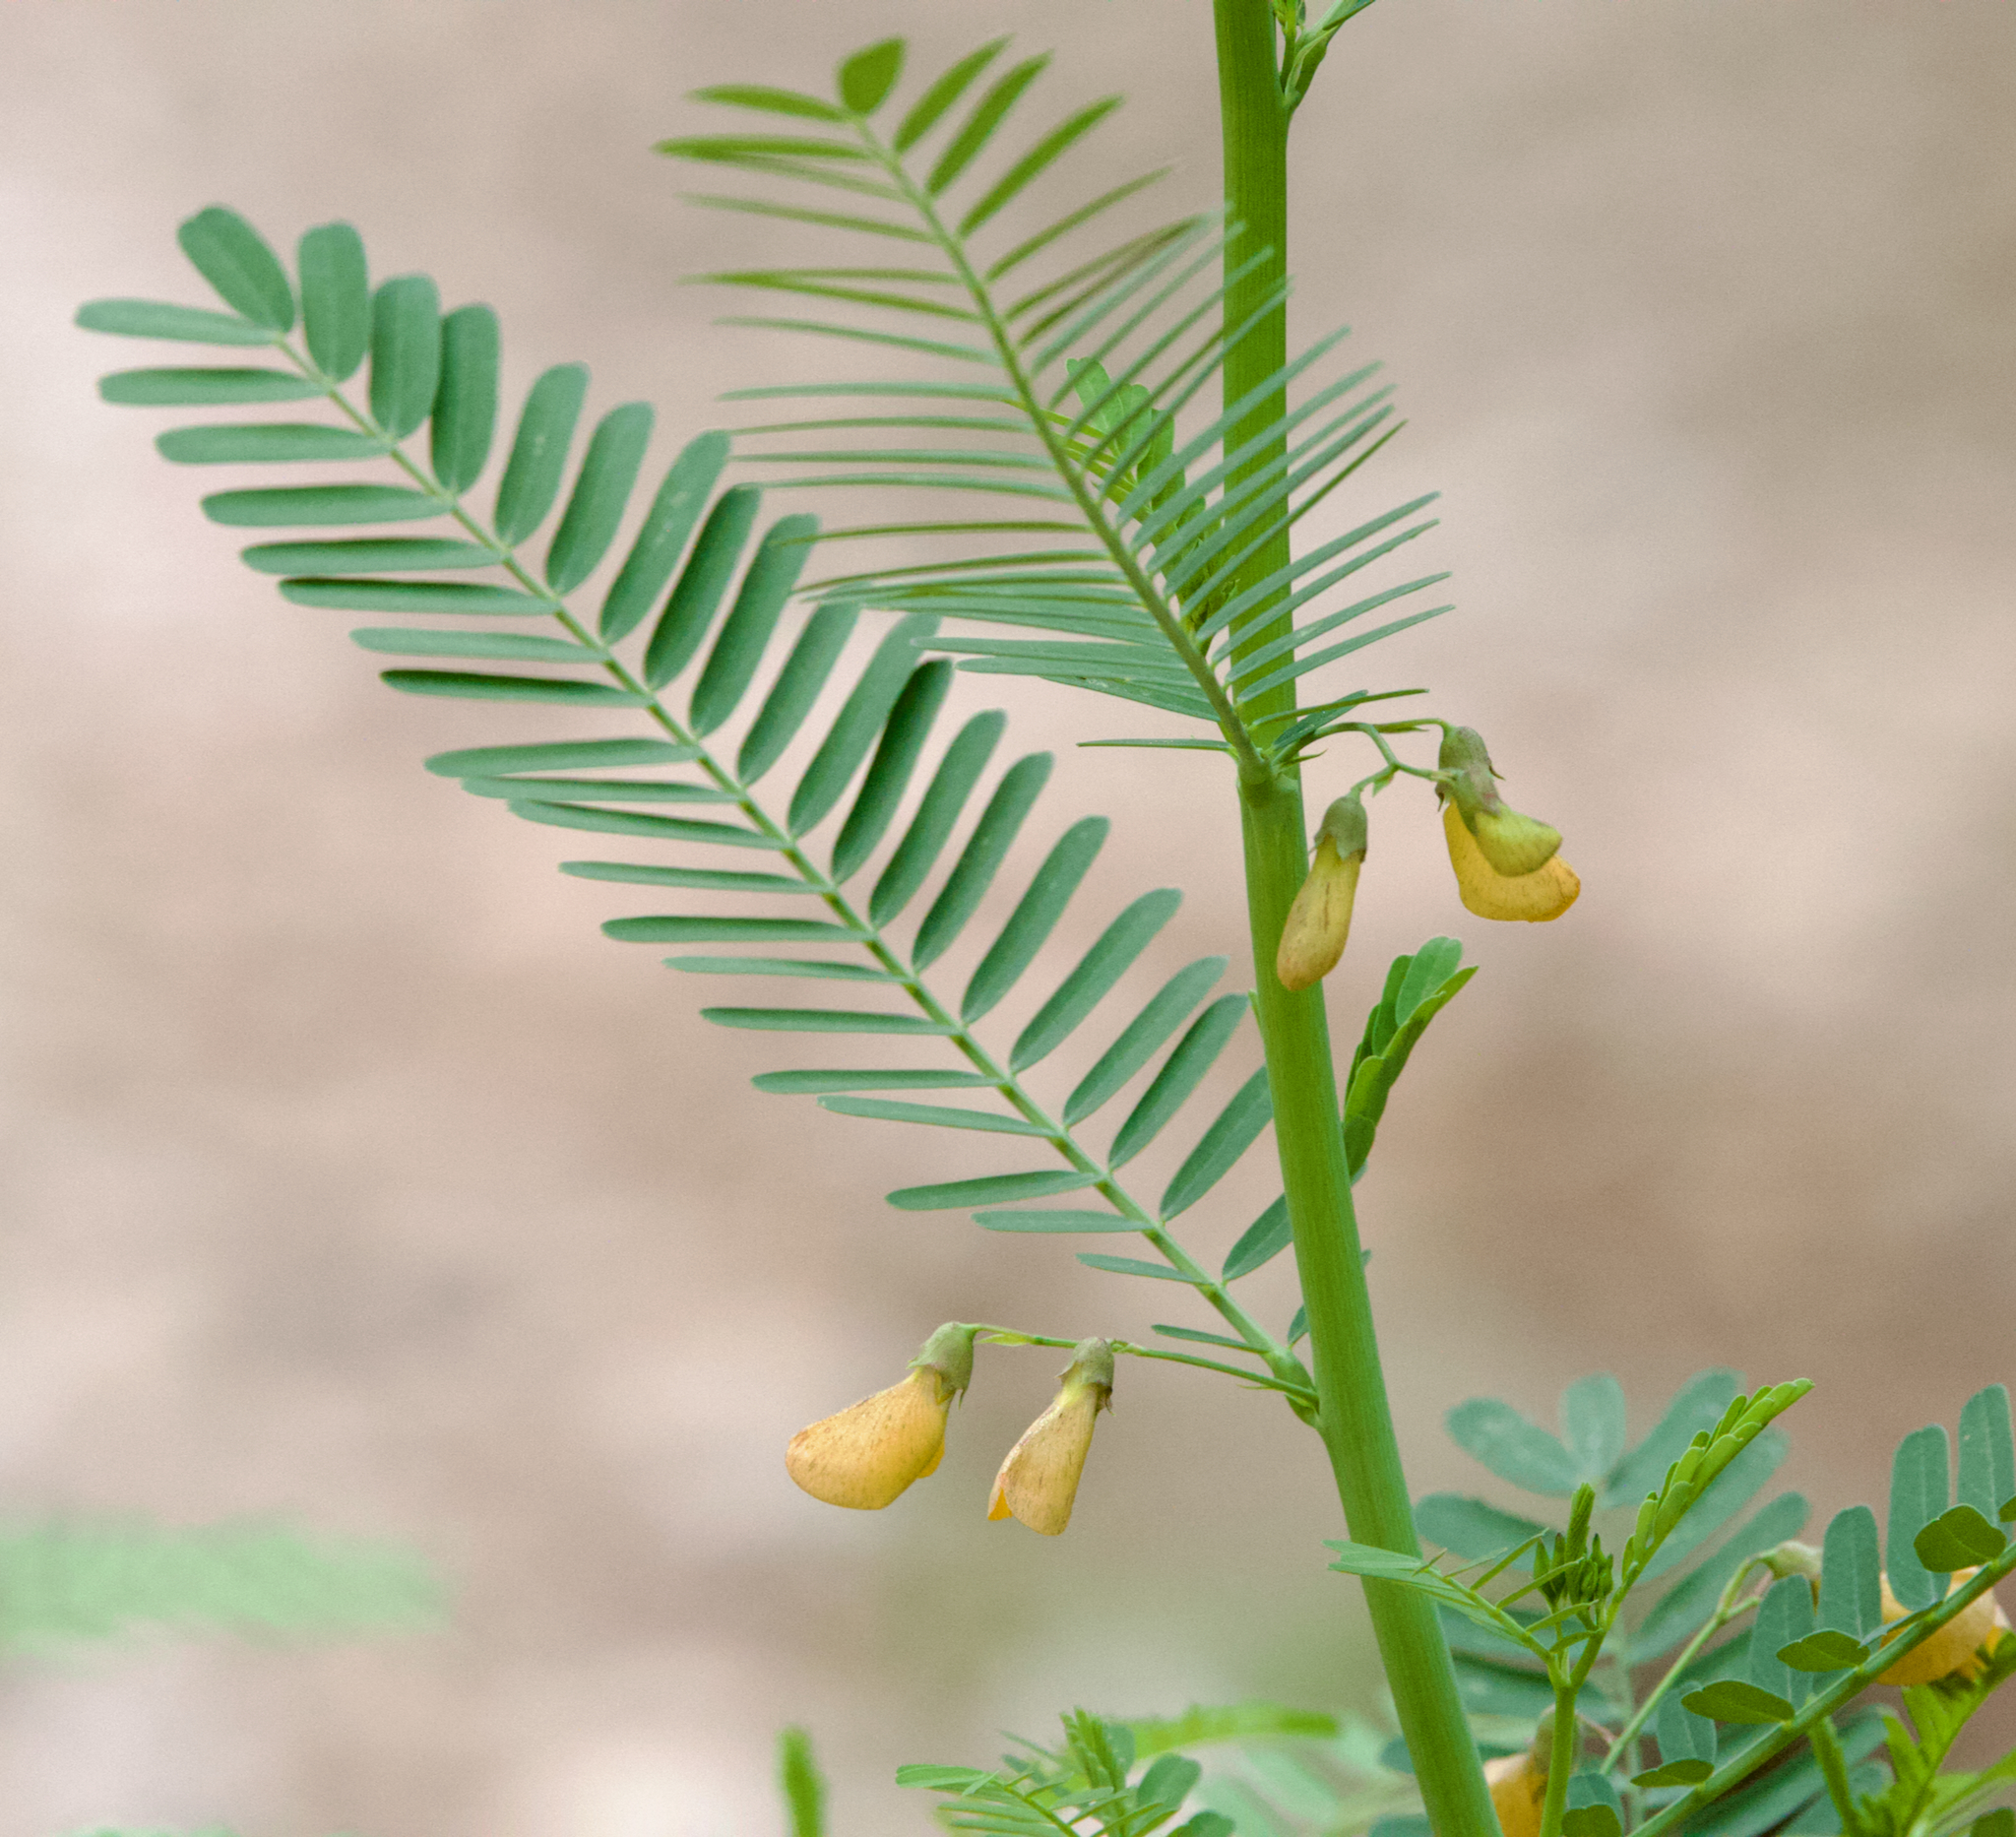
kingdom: Plantae
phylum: Tracheophyta
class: Magnoliopsida
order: Fabales
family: Fabaceae
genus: Sesbania
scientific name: Sesbania herbacea
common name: Bigpod sesbania
